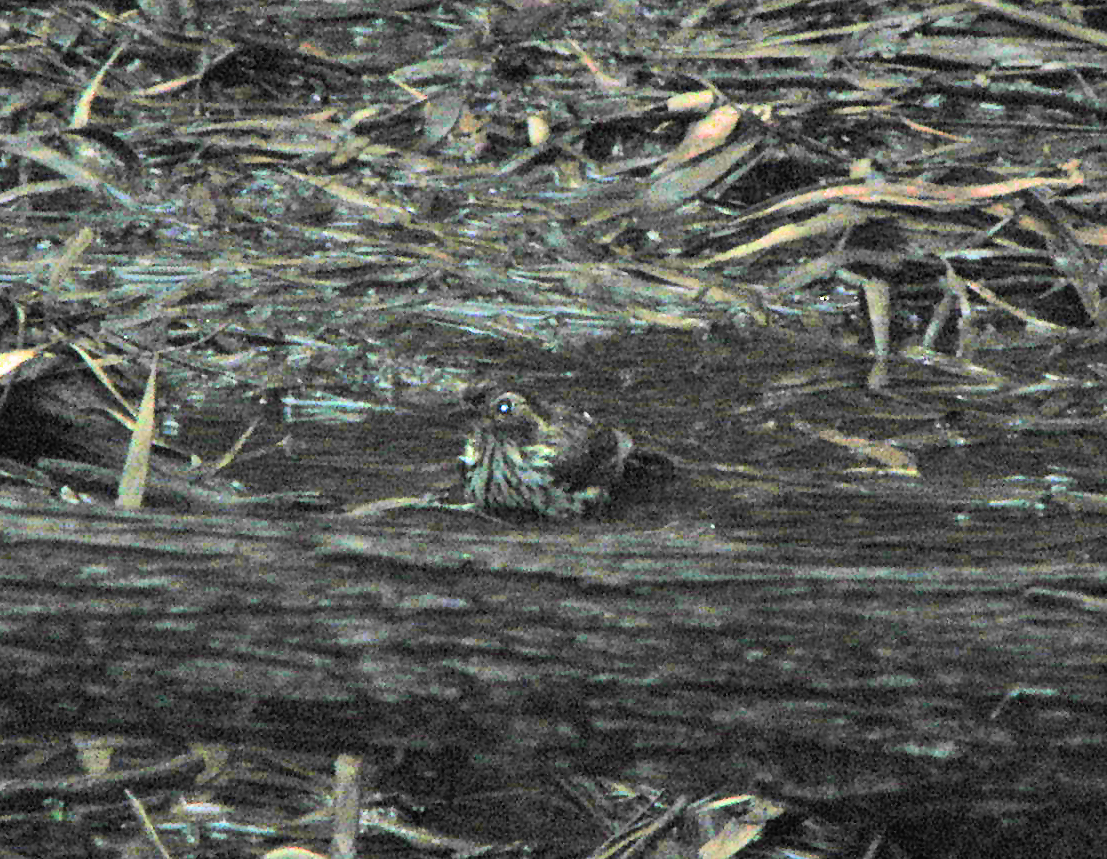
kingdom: Animalia
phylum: Chordata
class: Aves
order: Passeriformes
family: Acanthizidae
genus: Pyrrholaemus
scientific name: Pyrrholaemus sagittatus
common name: Speckled warbler
